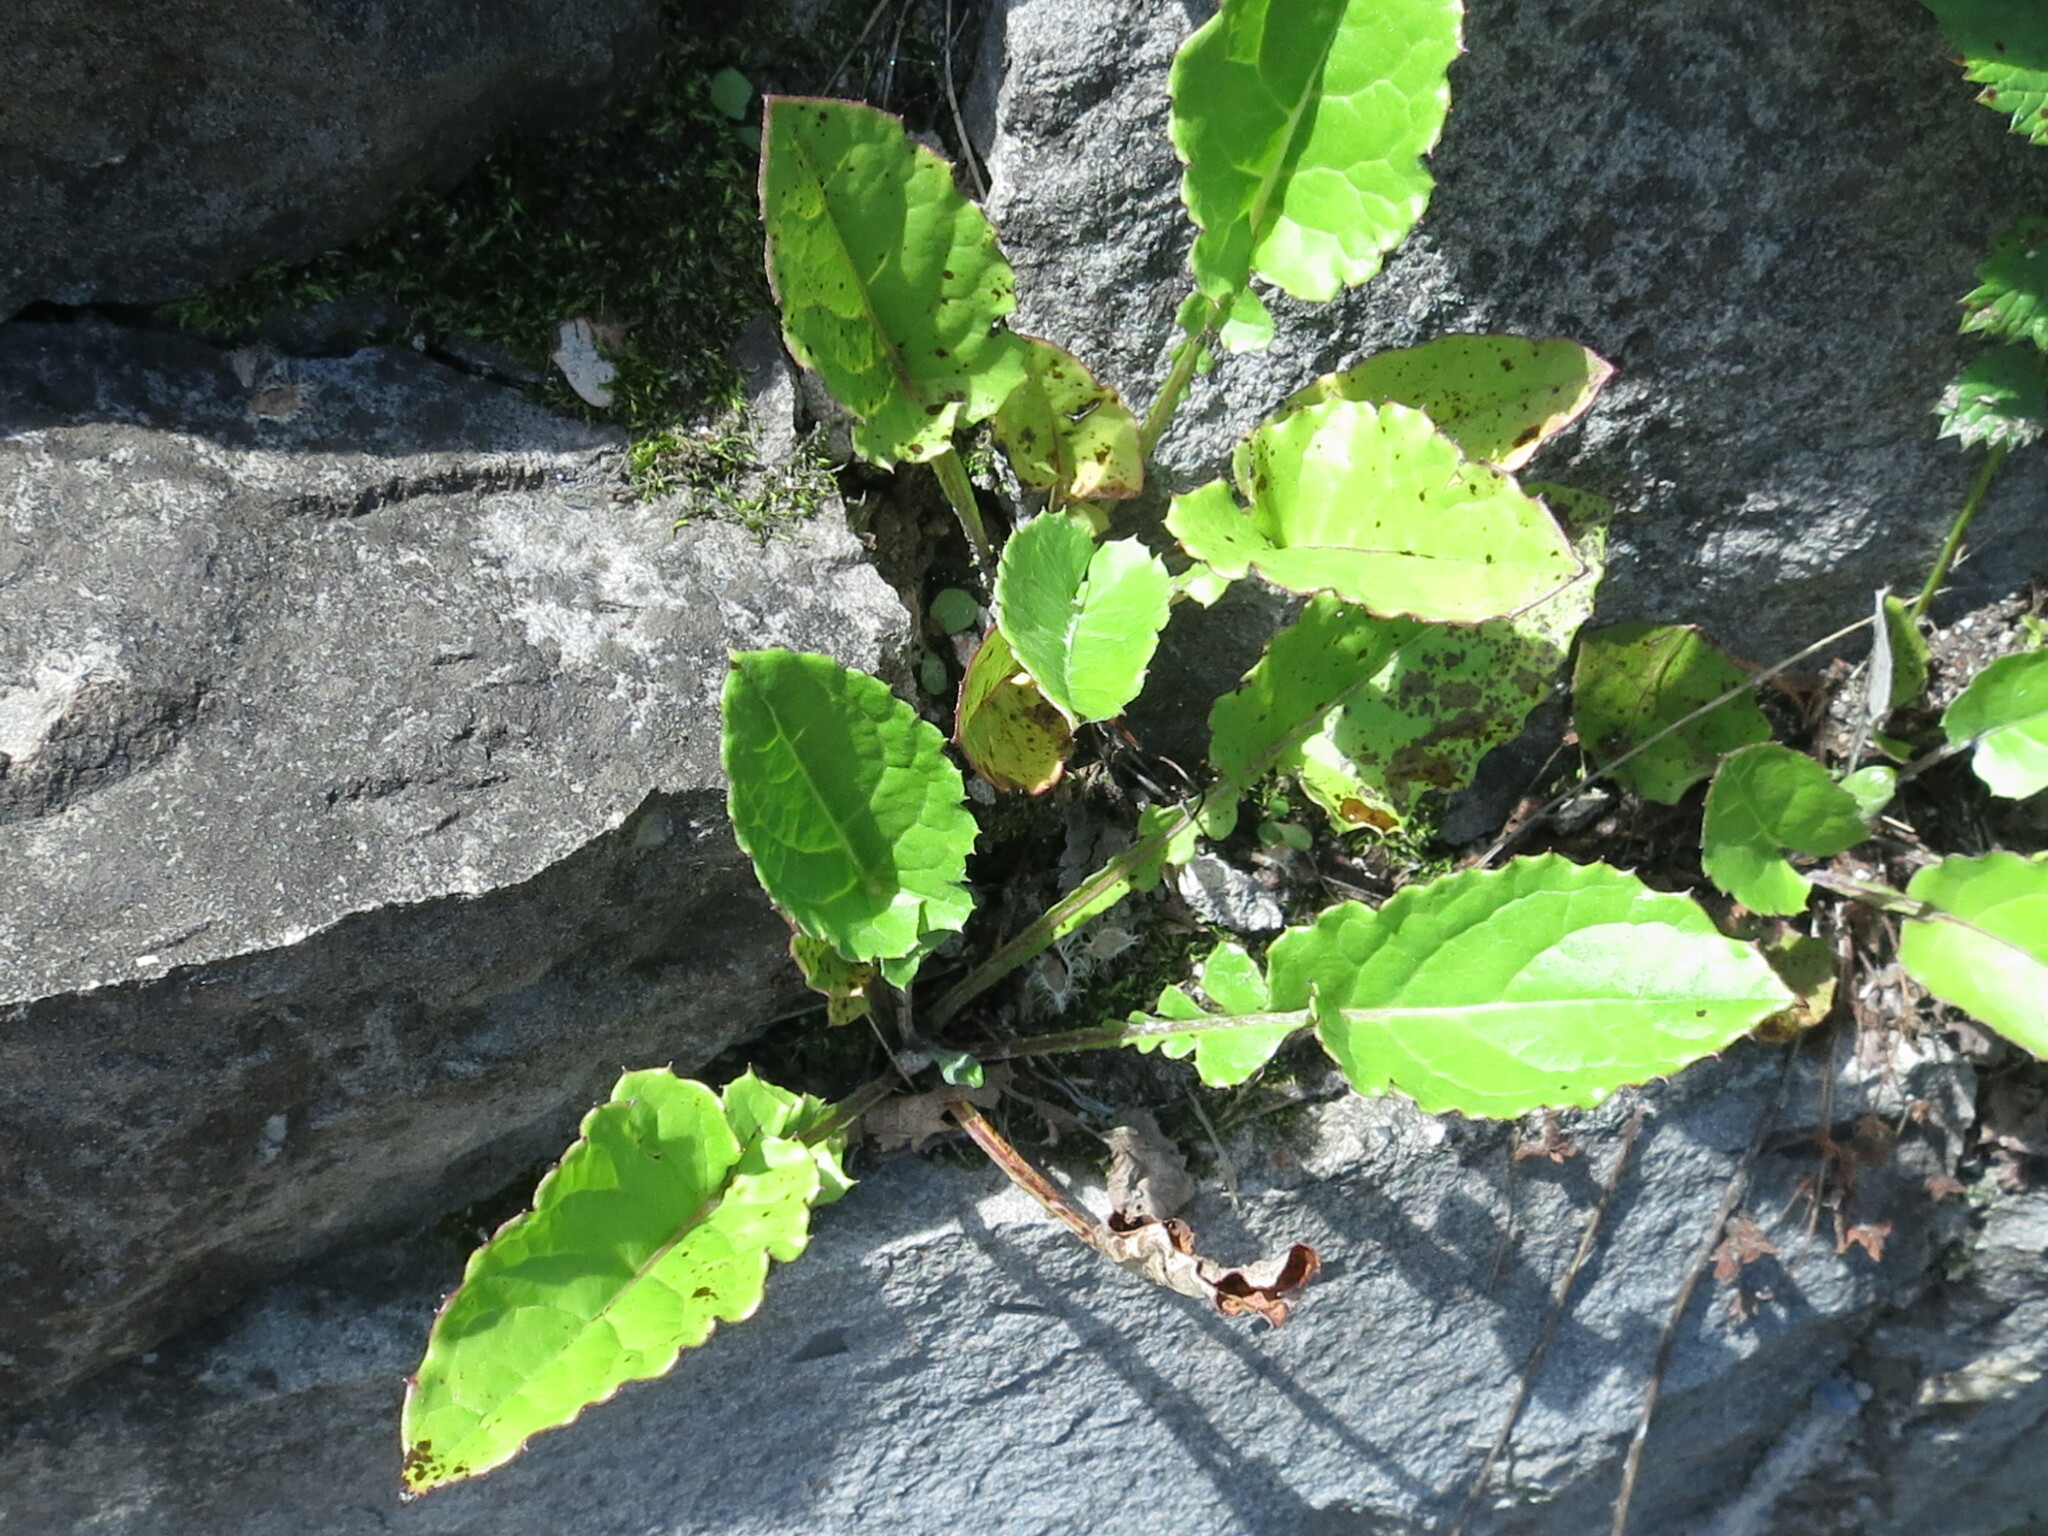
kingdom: Plantae
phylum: Tracheophyta
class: Magnoliopsida
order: Asterales
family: Asteraceae
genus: Leibnitzia
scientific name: Leibnitzia anandria
